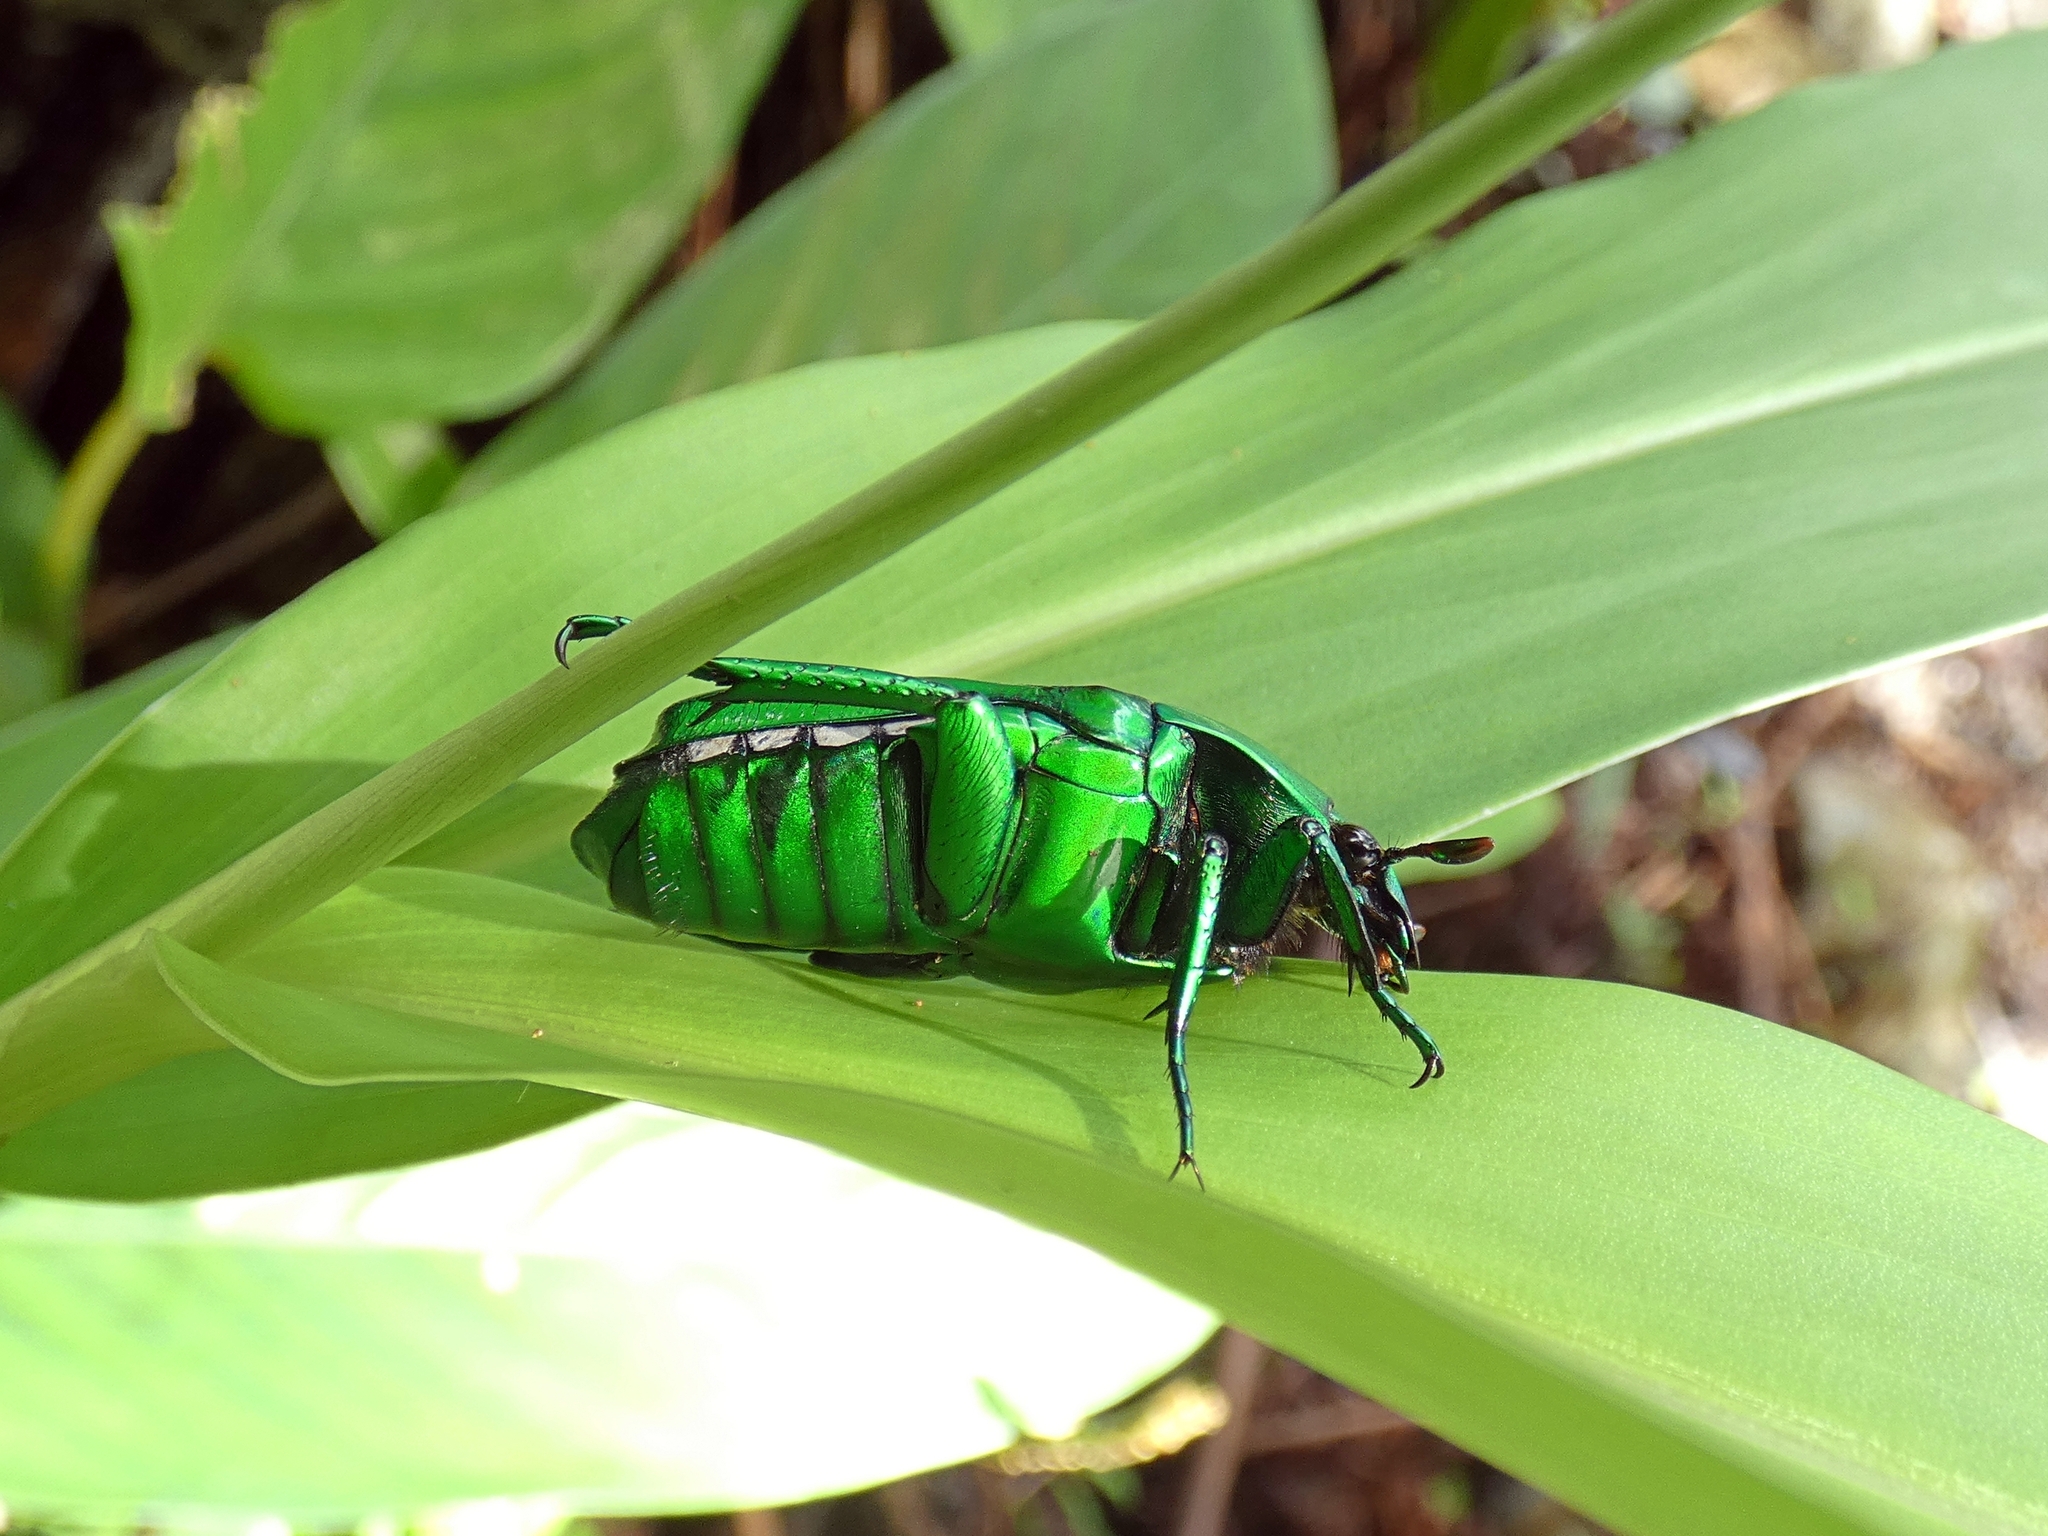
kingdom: Animalia
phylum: Arthropoda
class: Insecta
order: Coleoptera
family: Scarabaeidae
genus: Ischiopsopha
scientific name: Ischiopsopha wallacei
